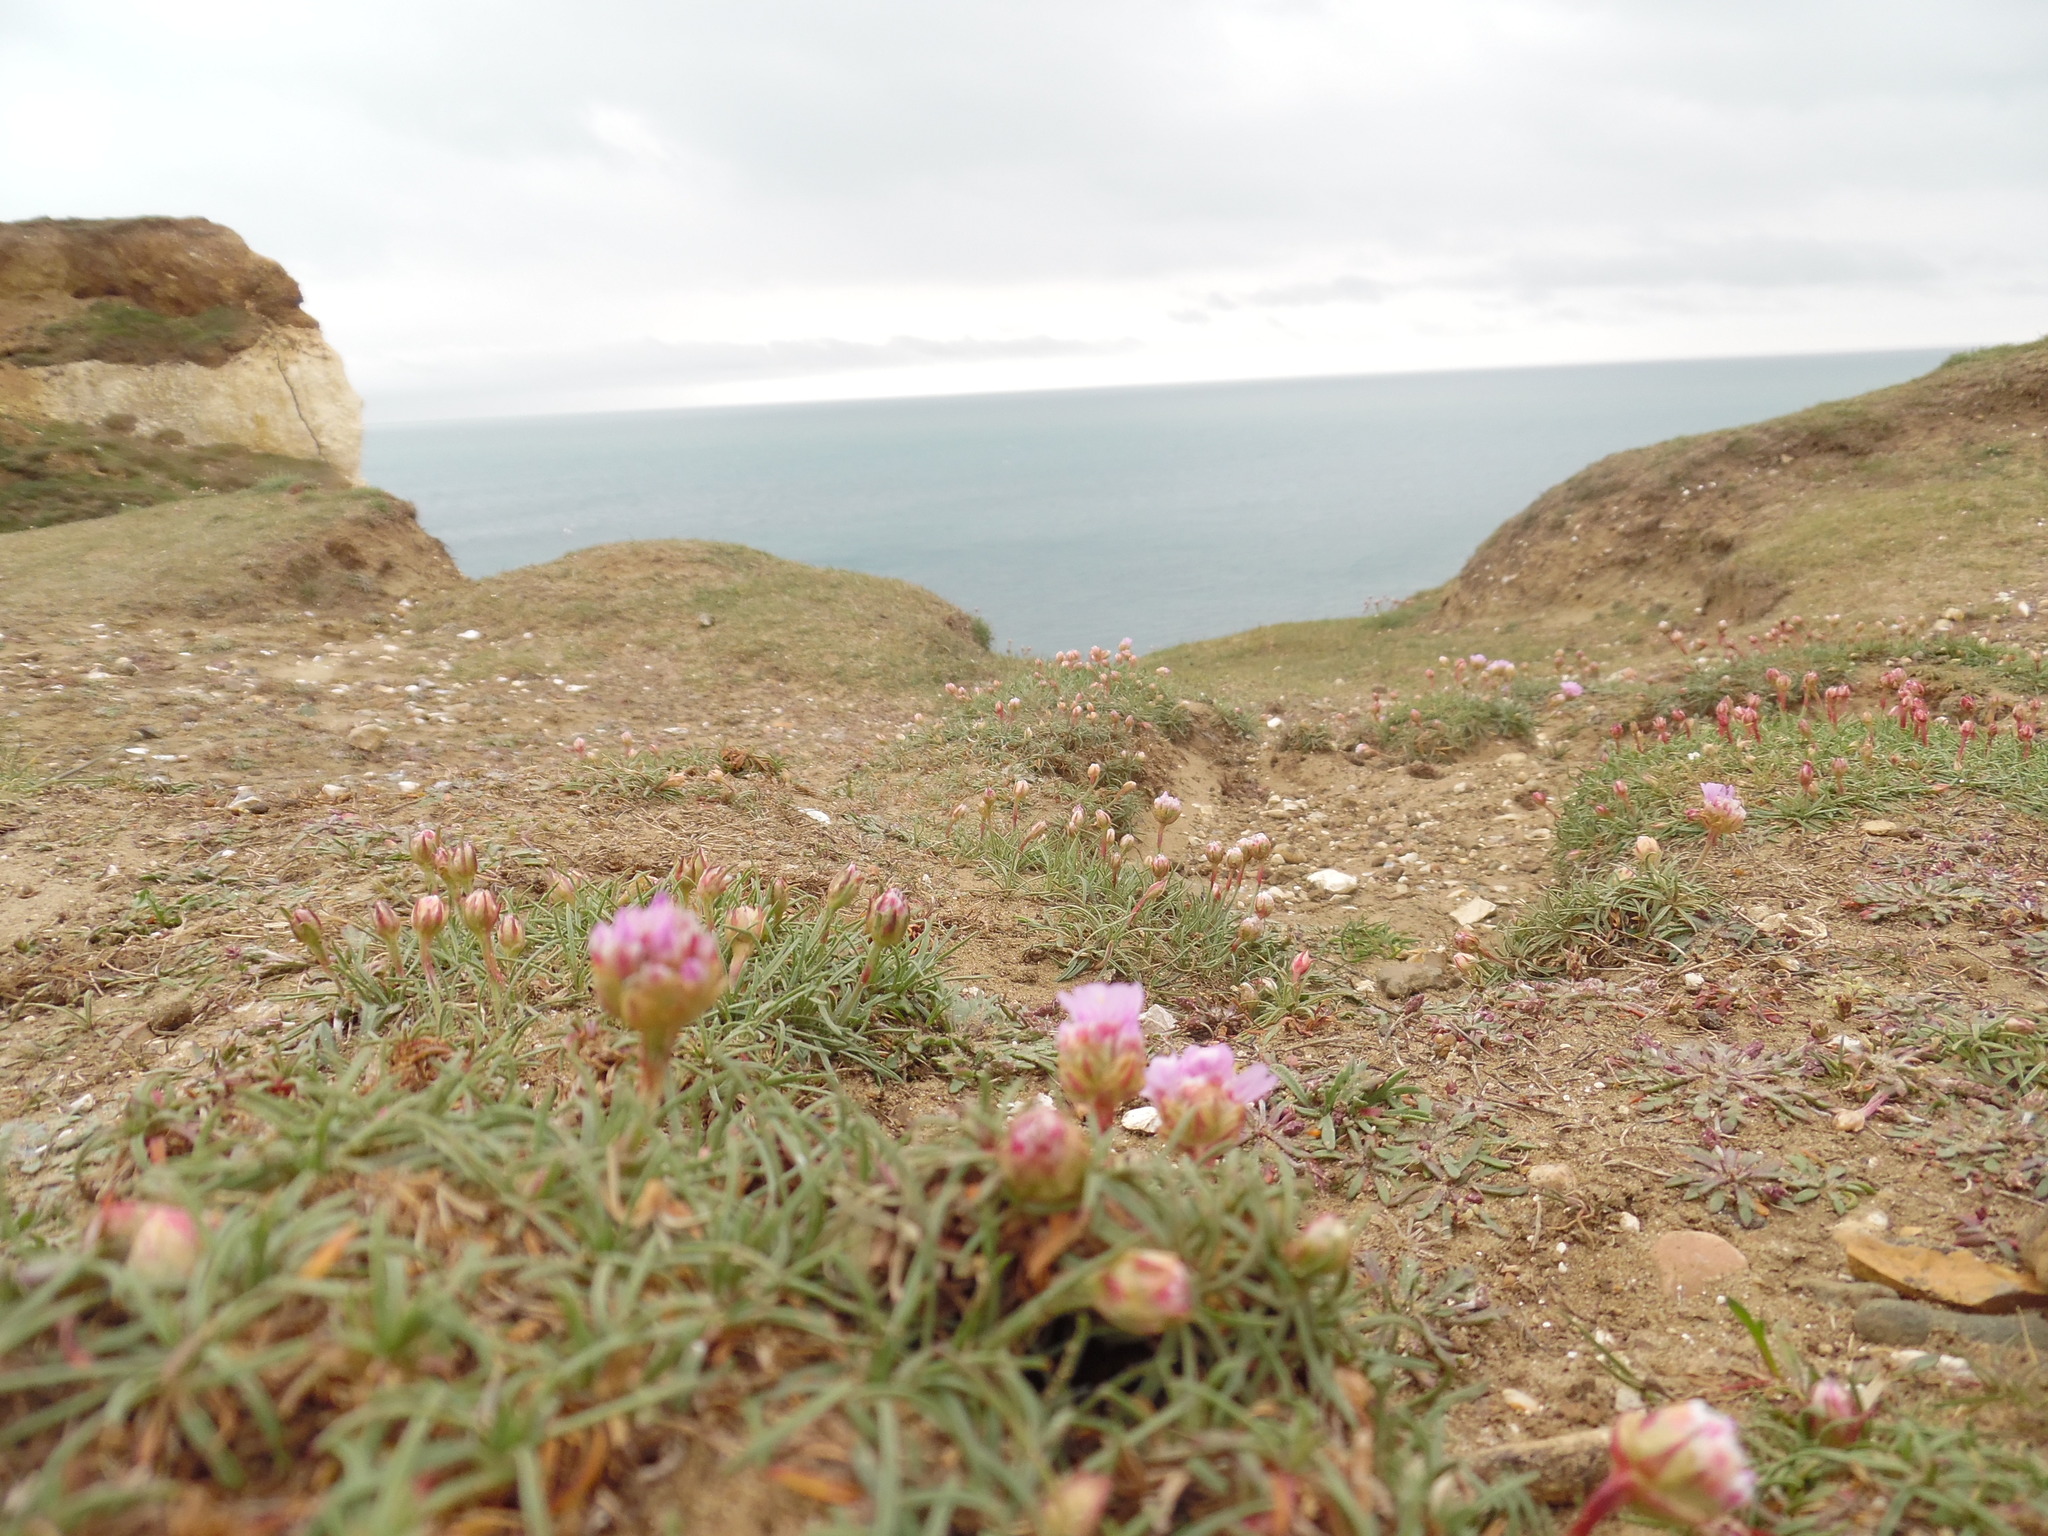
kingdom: Plantae
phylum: Tracheophyta
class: Magnoliopsida
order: Caryophyllales
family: Plumbaginaceae
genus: Armeria
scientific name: Armeria maritima
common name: Thrift
